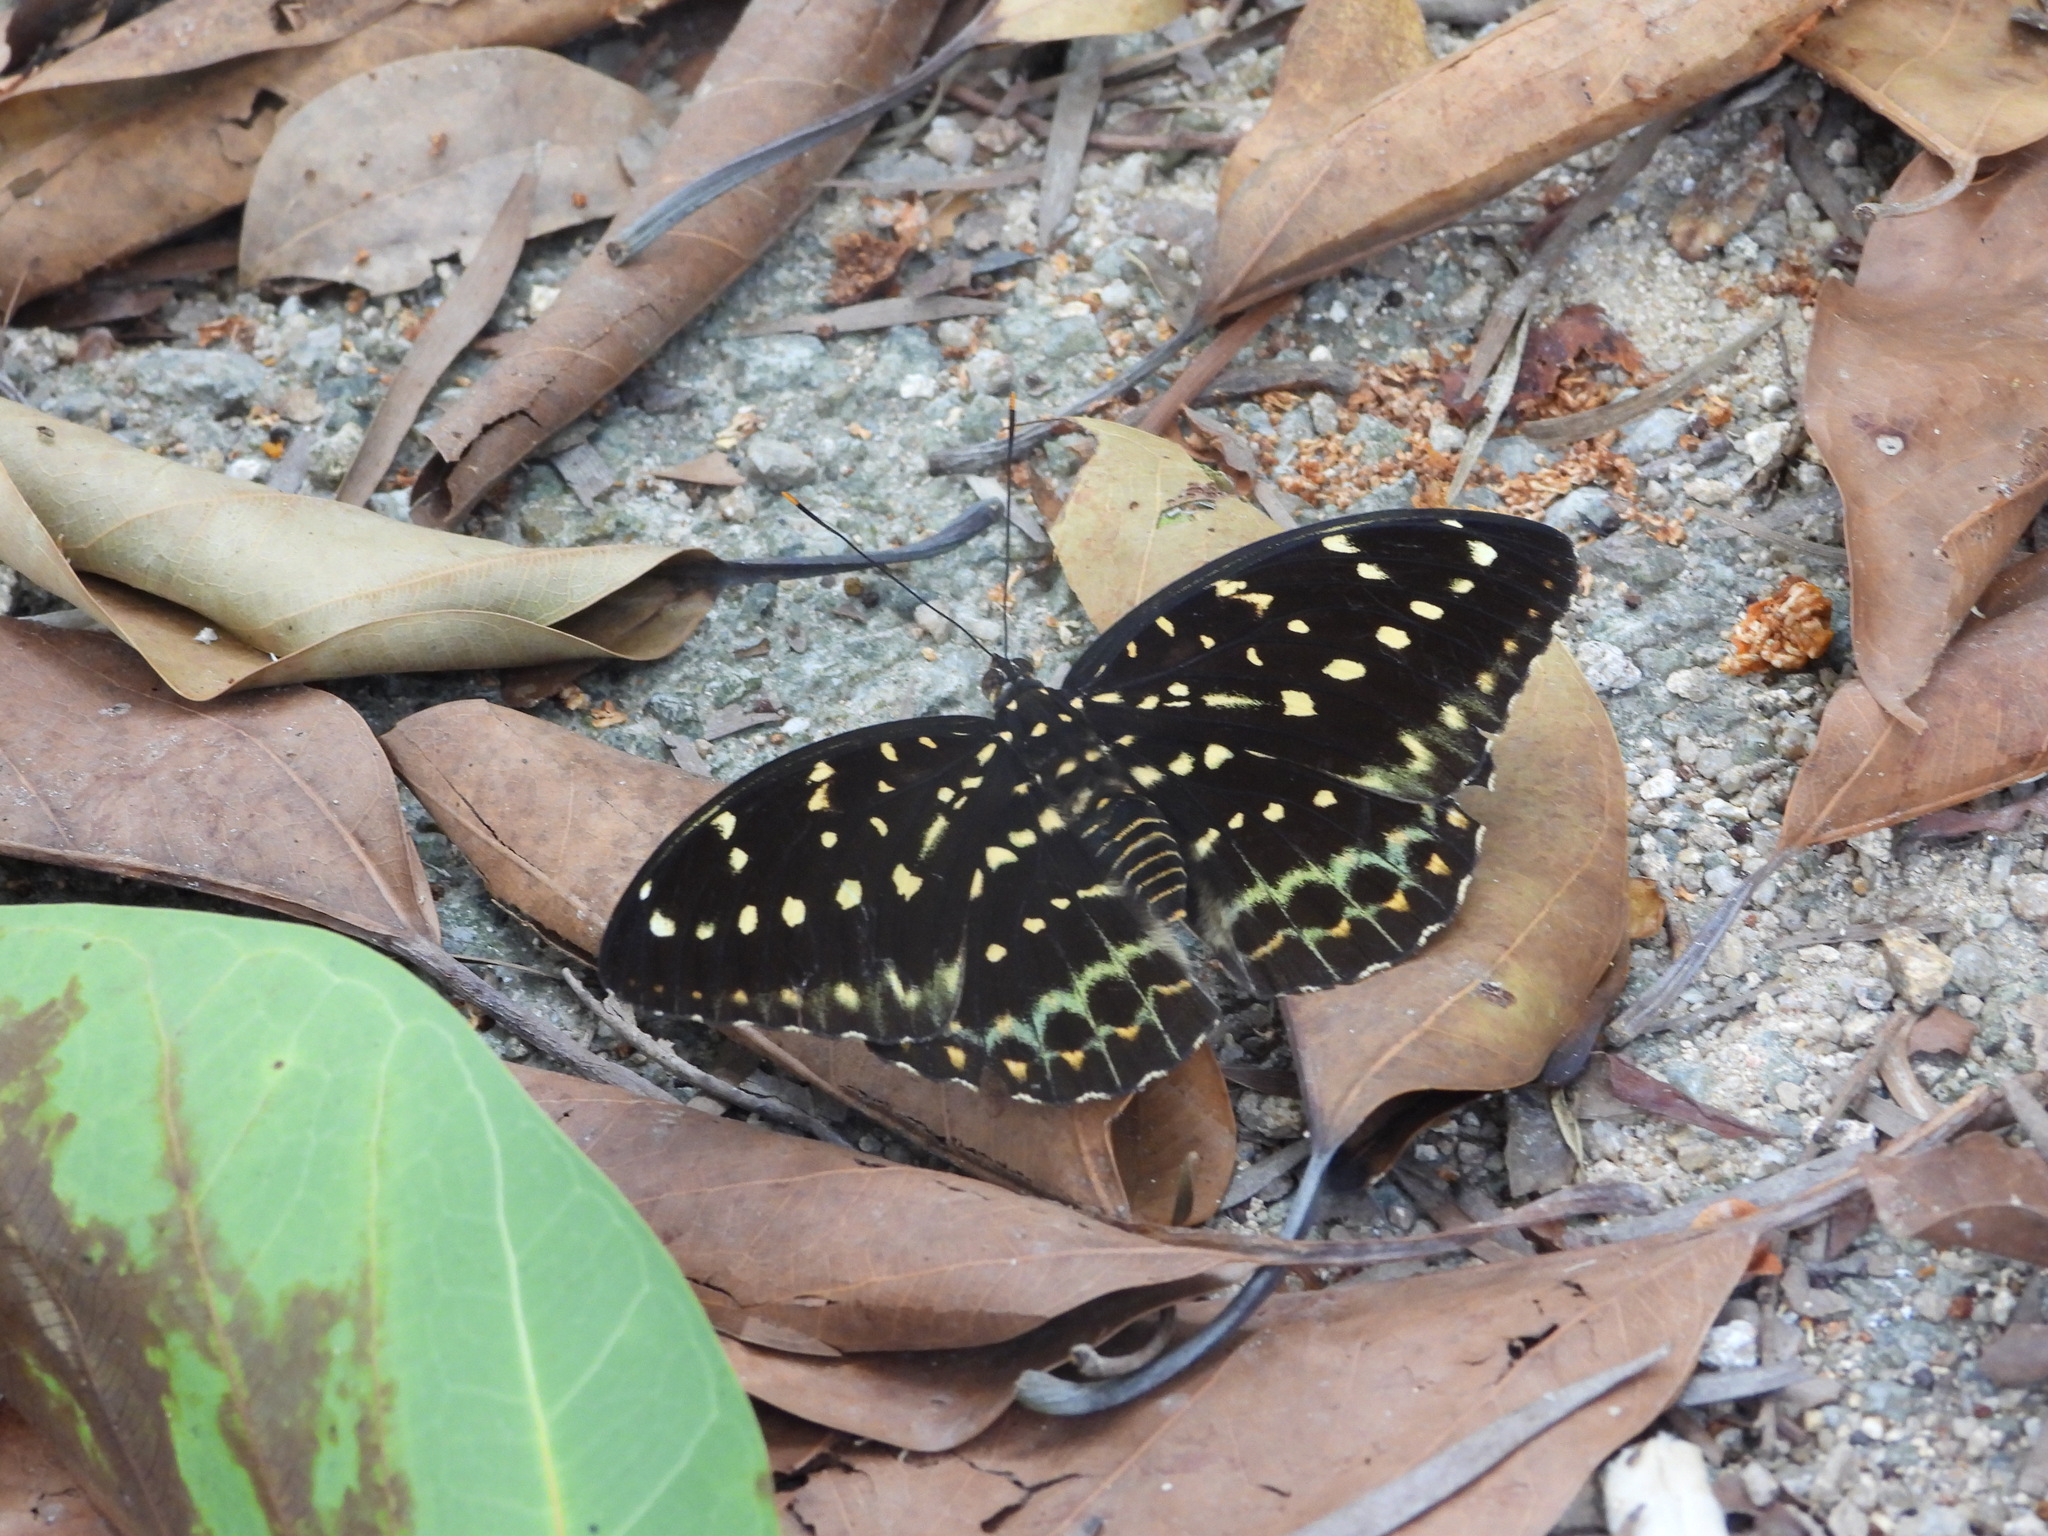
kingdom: Animalia
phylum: Arthropoda
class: Insecta
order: Lepidoptera
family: Nymphalidae
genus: Lexias
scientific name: Lexias pardalis
